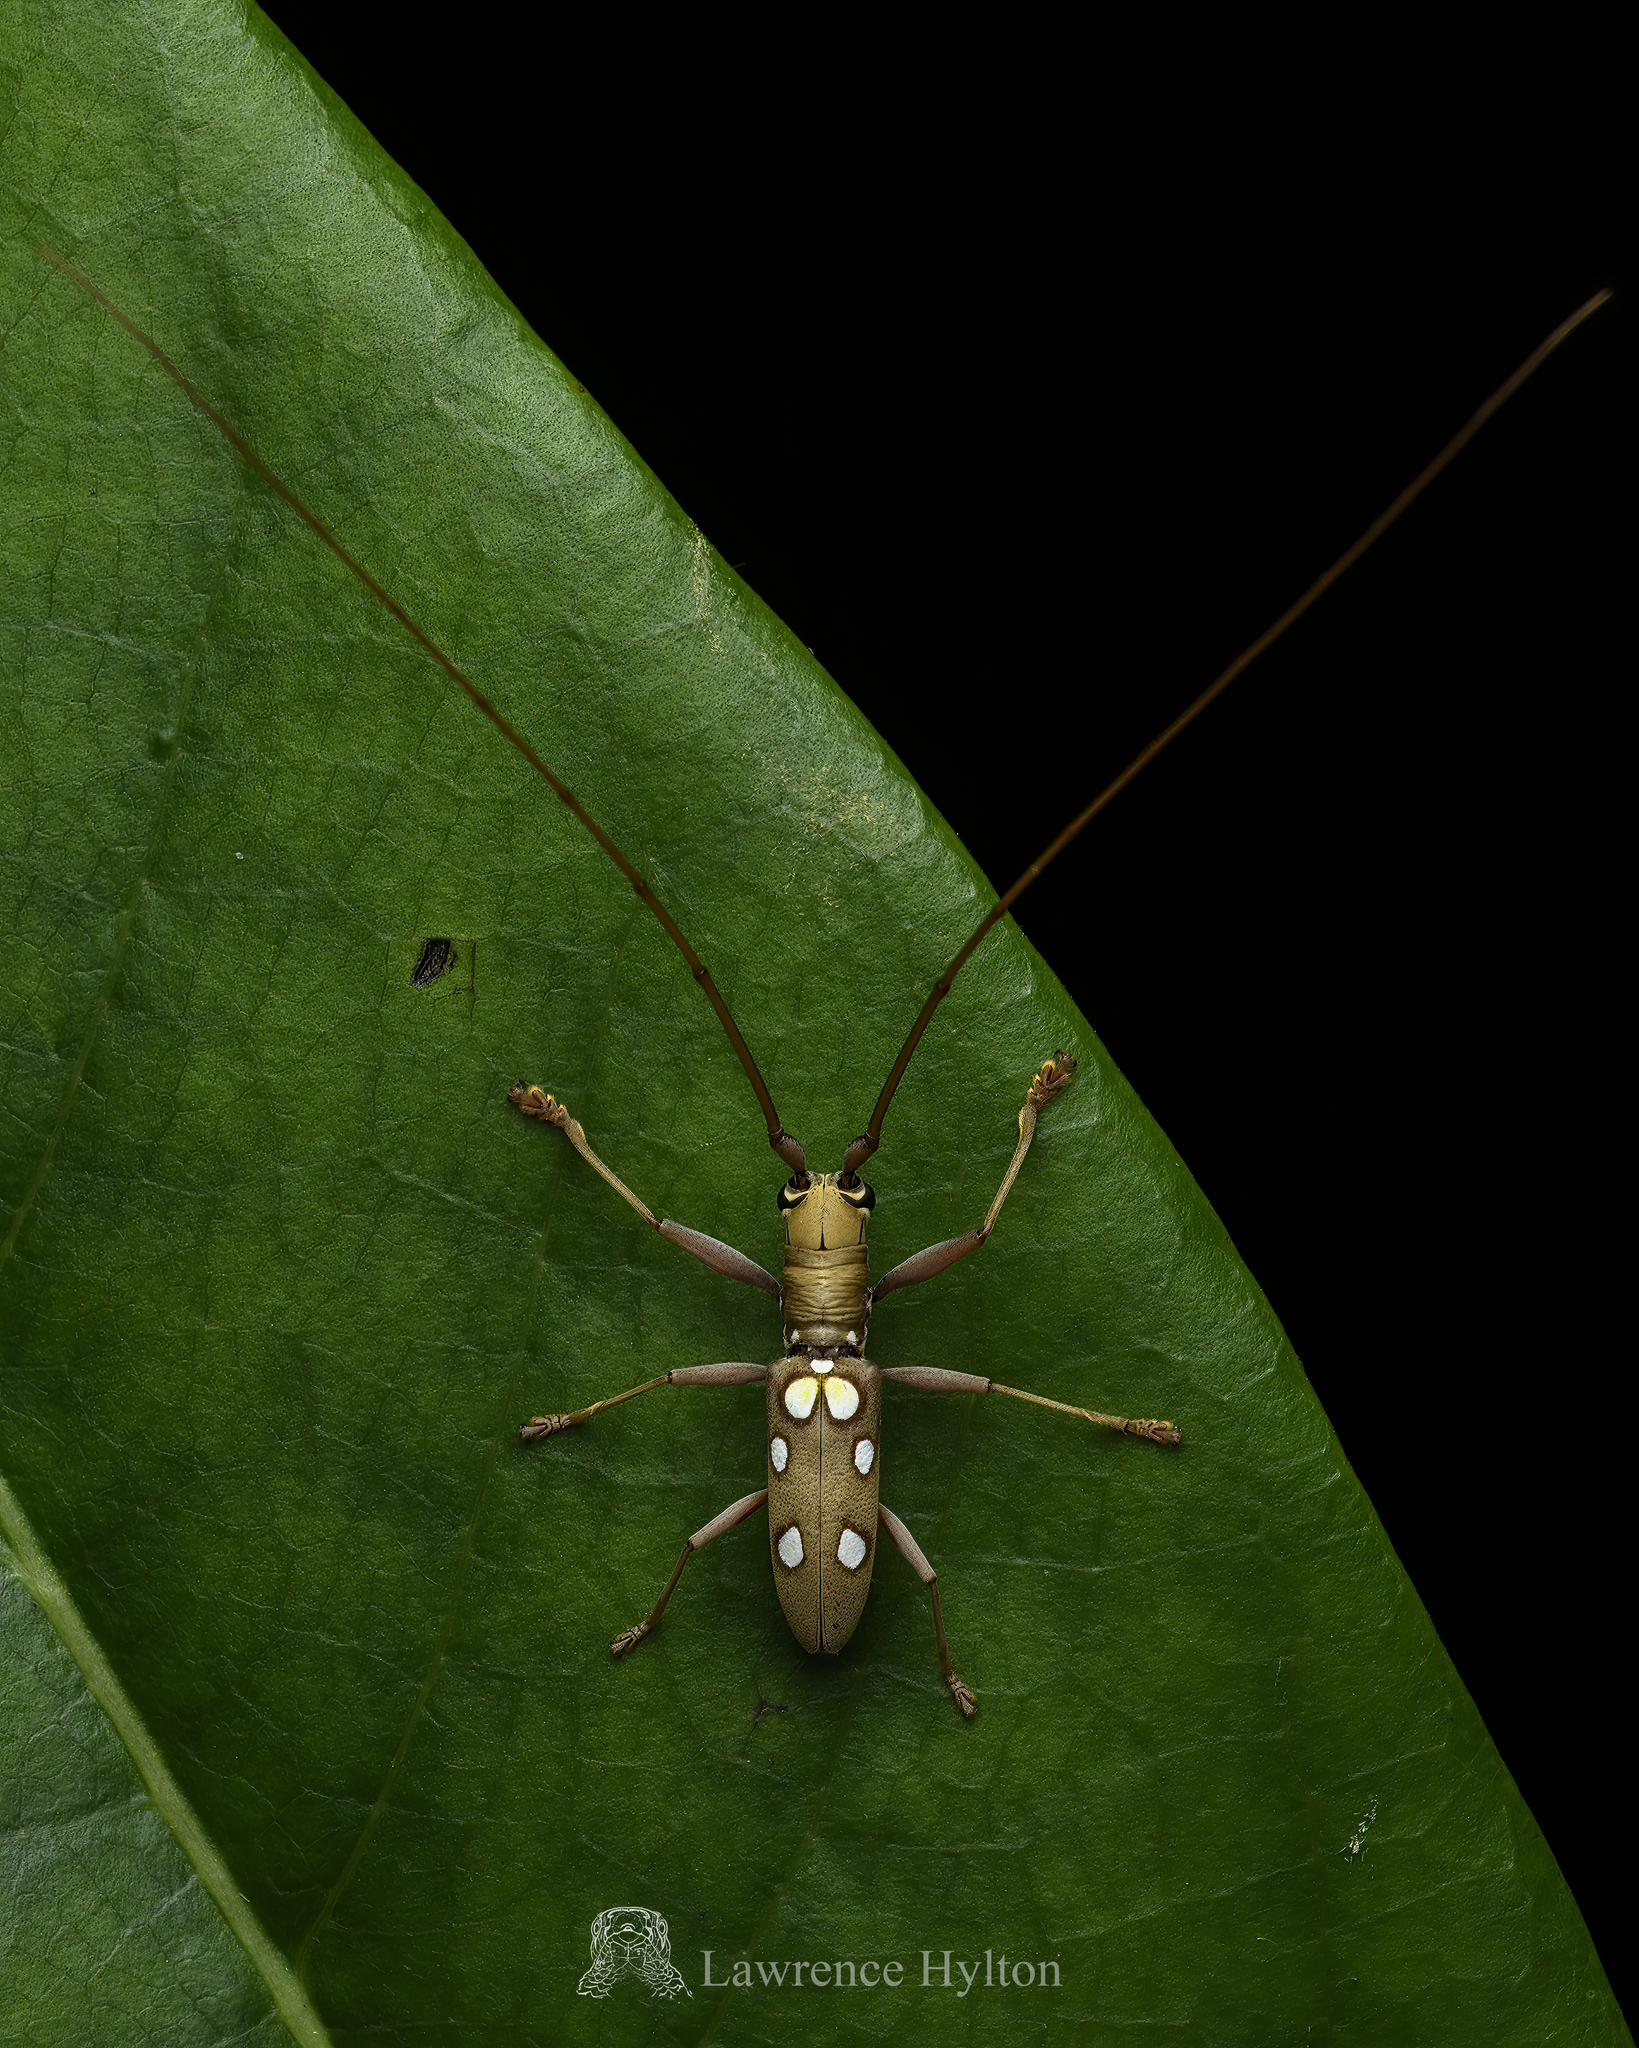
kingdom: Animalia
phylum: Arthropoda
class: Insecta
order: Coleoptera
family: Cerambycidae
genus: Olenecamptus
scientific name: Olenecamptus bilobus
